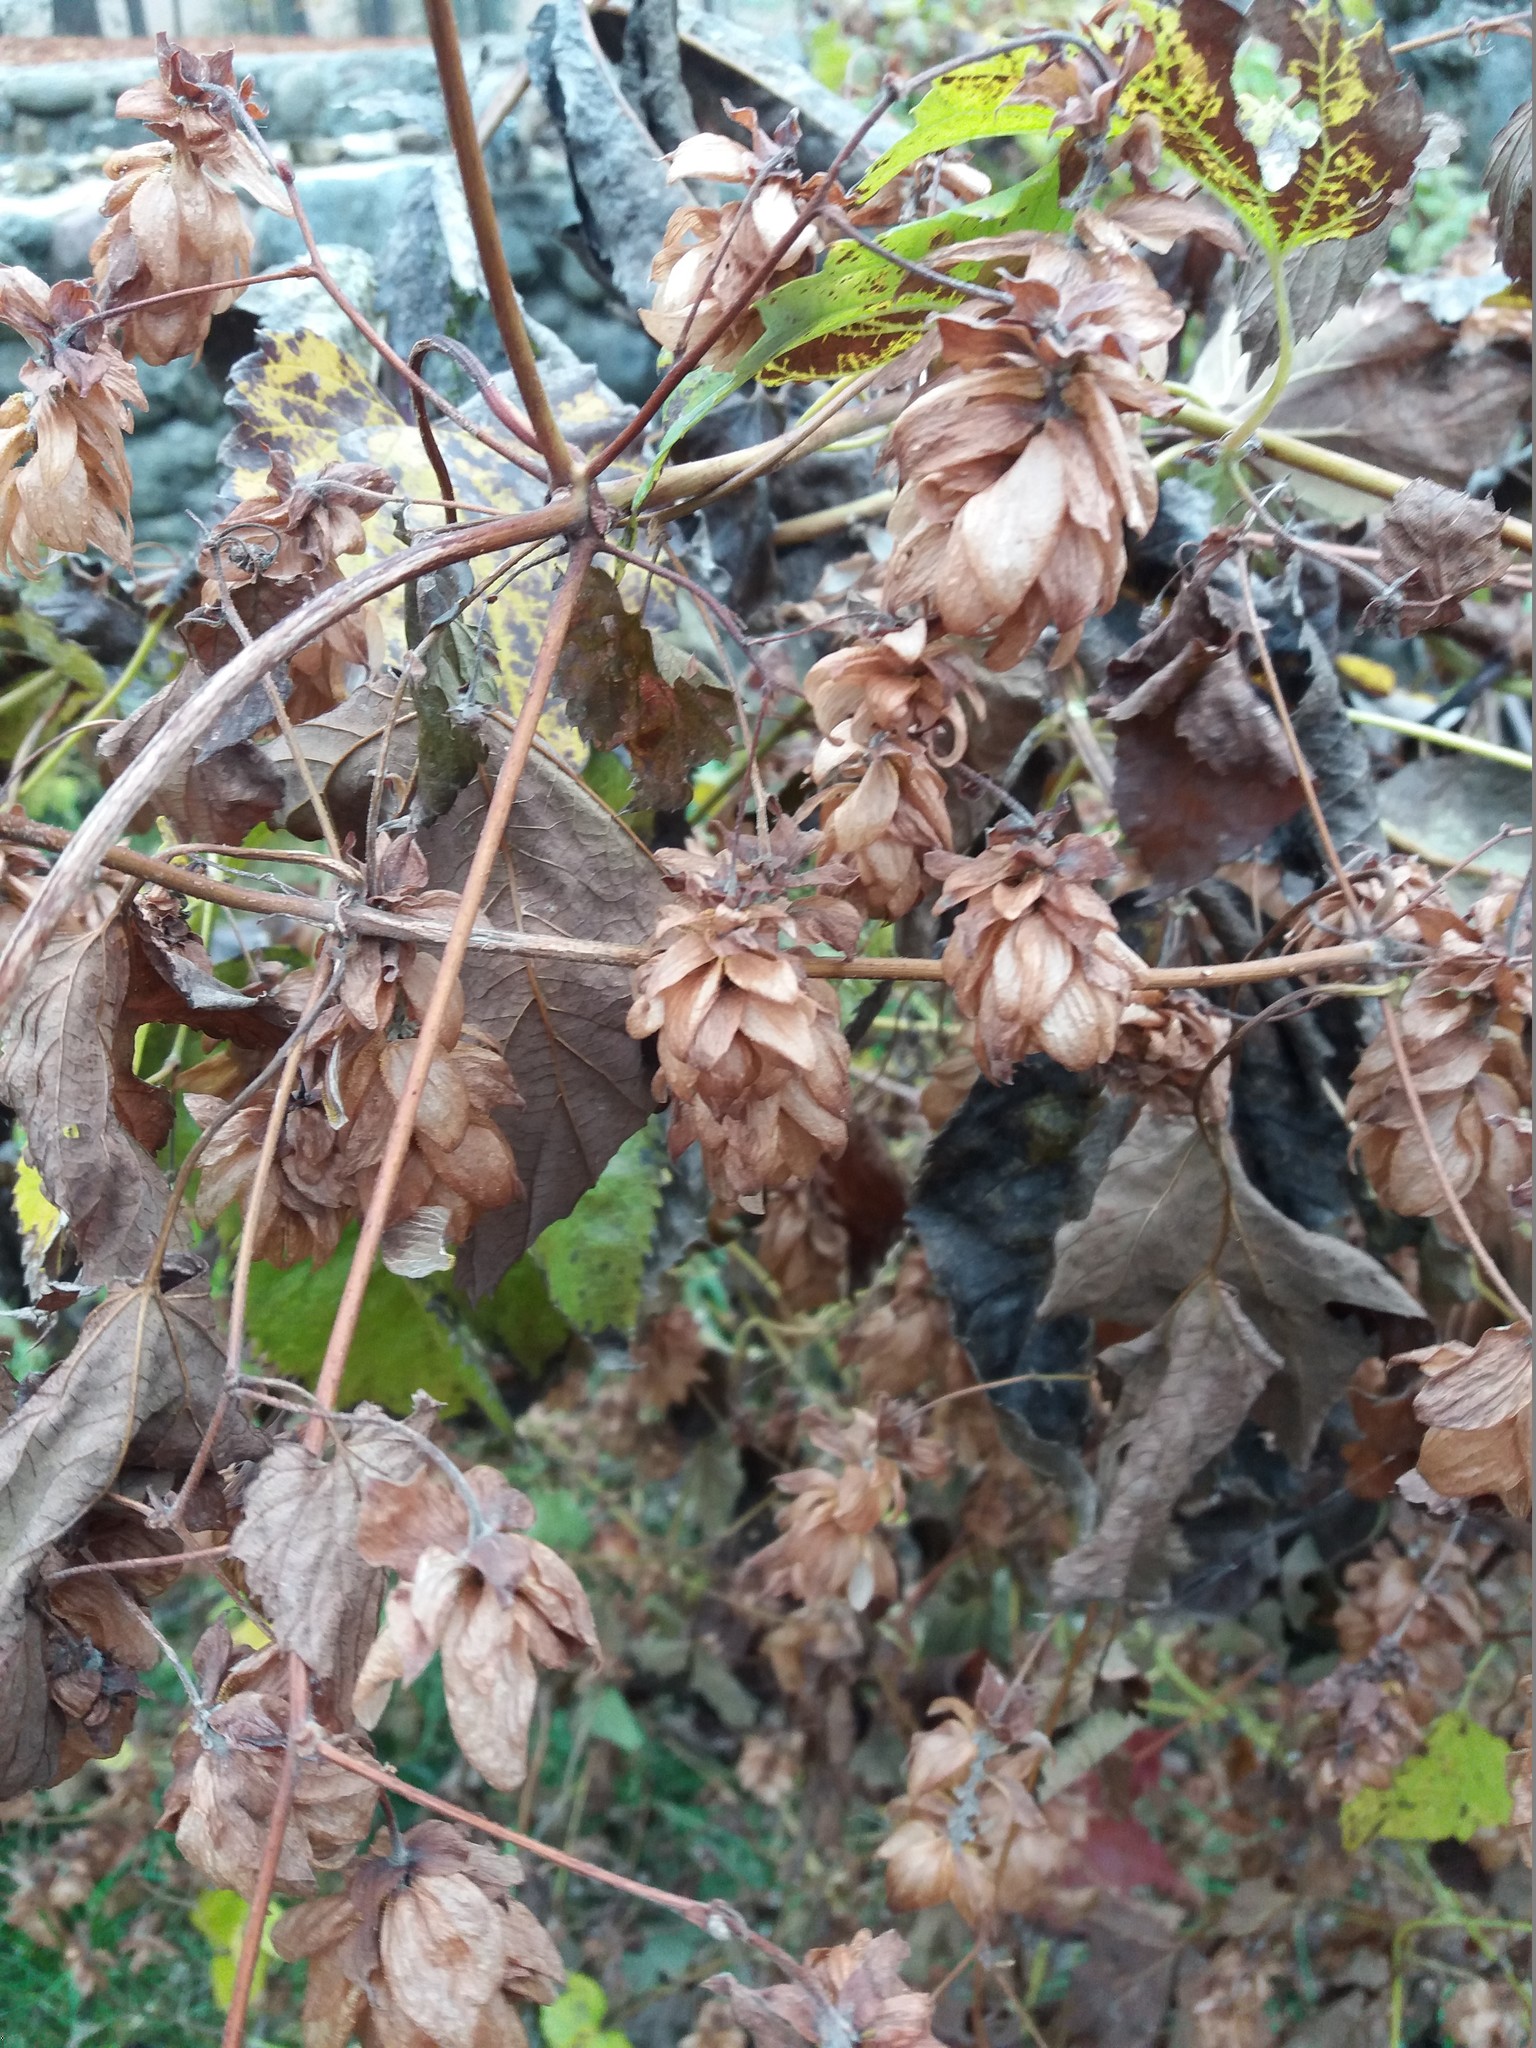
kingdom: Plantae
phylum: Tracheophyta
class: Magnoliopsida
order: Rosales
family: Cannabaceae
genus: Humulus
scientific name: Humulus lupulus
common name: Hop
